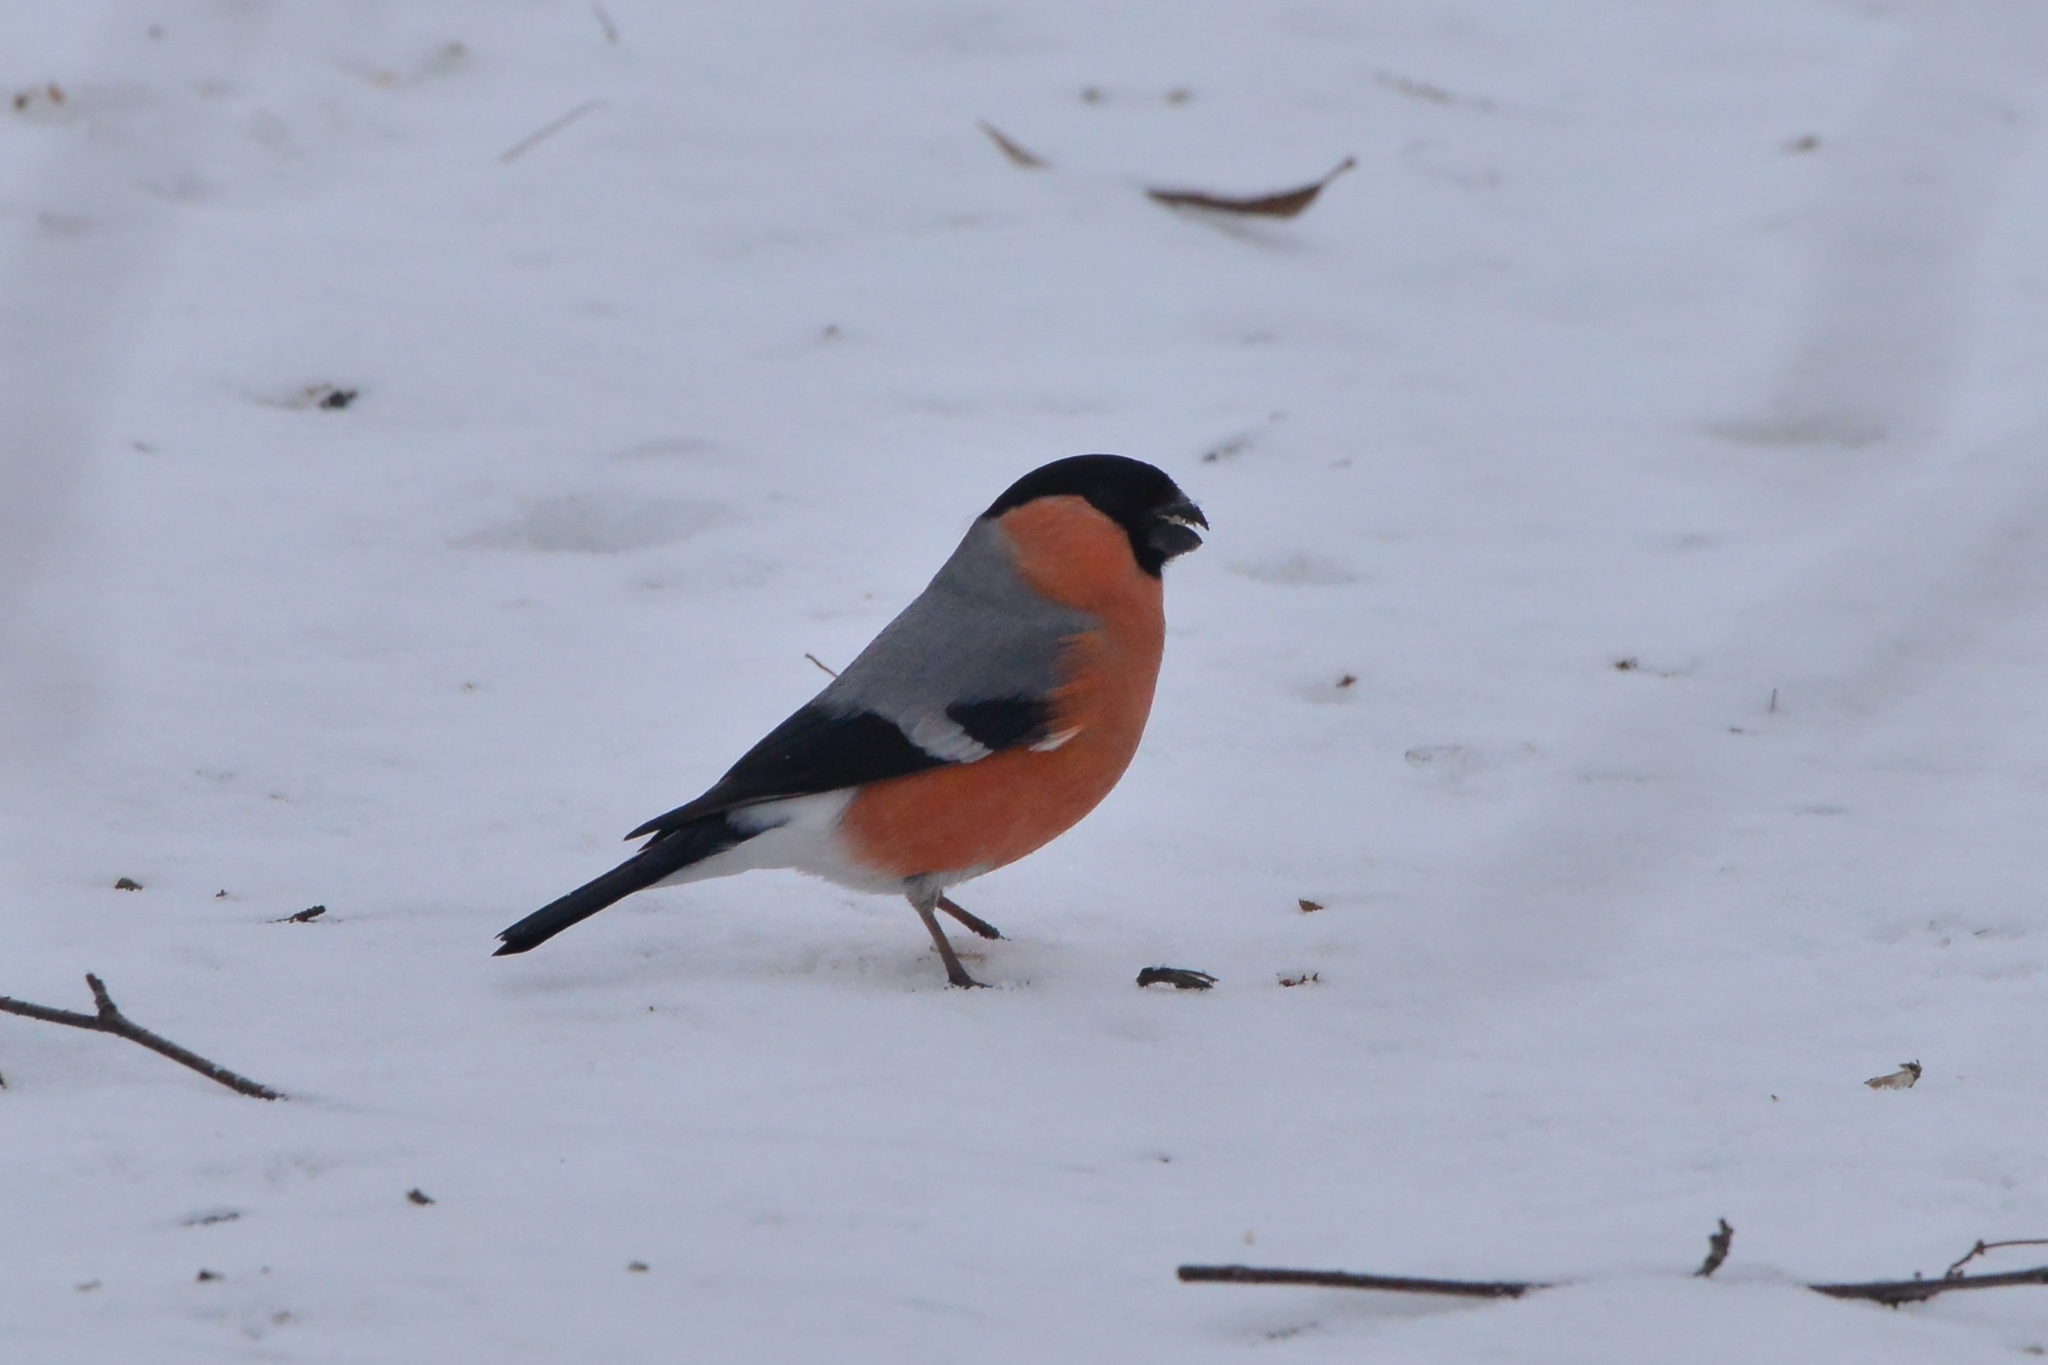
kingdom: Animalia
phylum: Chordata
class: Aves
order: Passeriformes
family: Fringillidae
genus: Pyrrhula
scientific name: Pyrrhula pyrrhula
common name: Eurasian bullfinch
